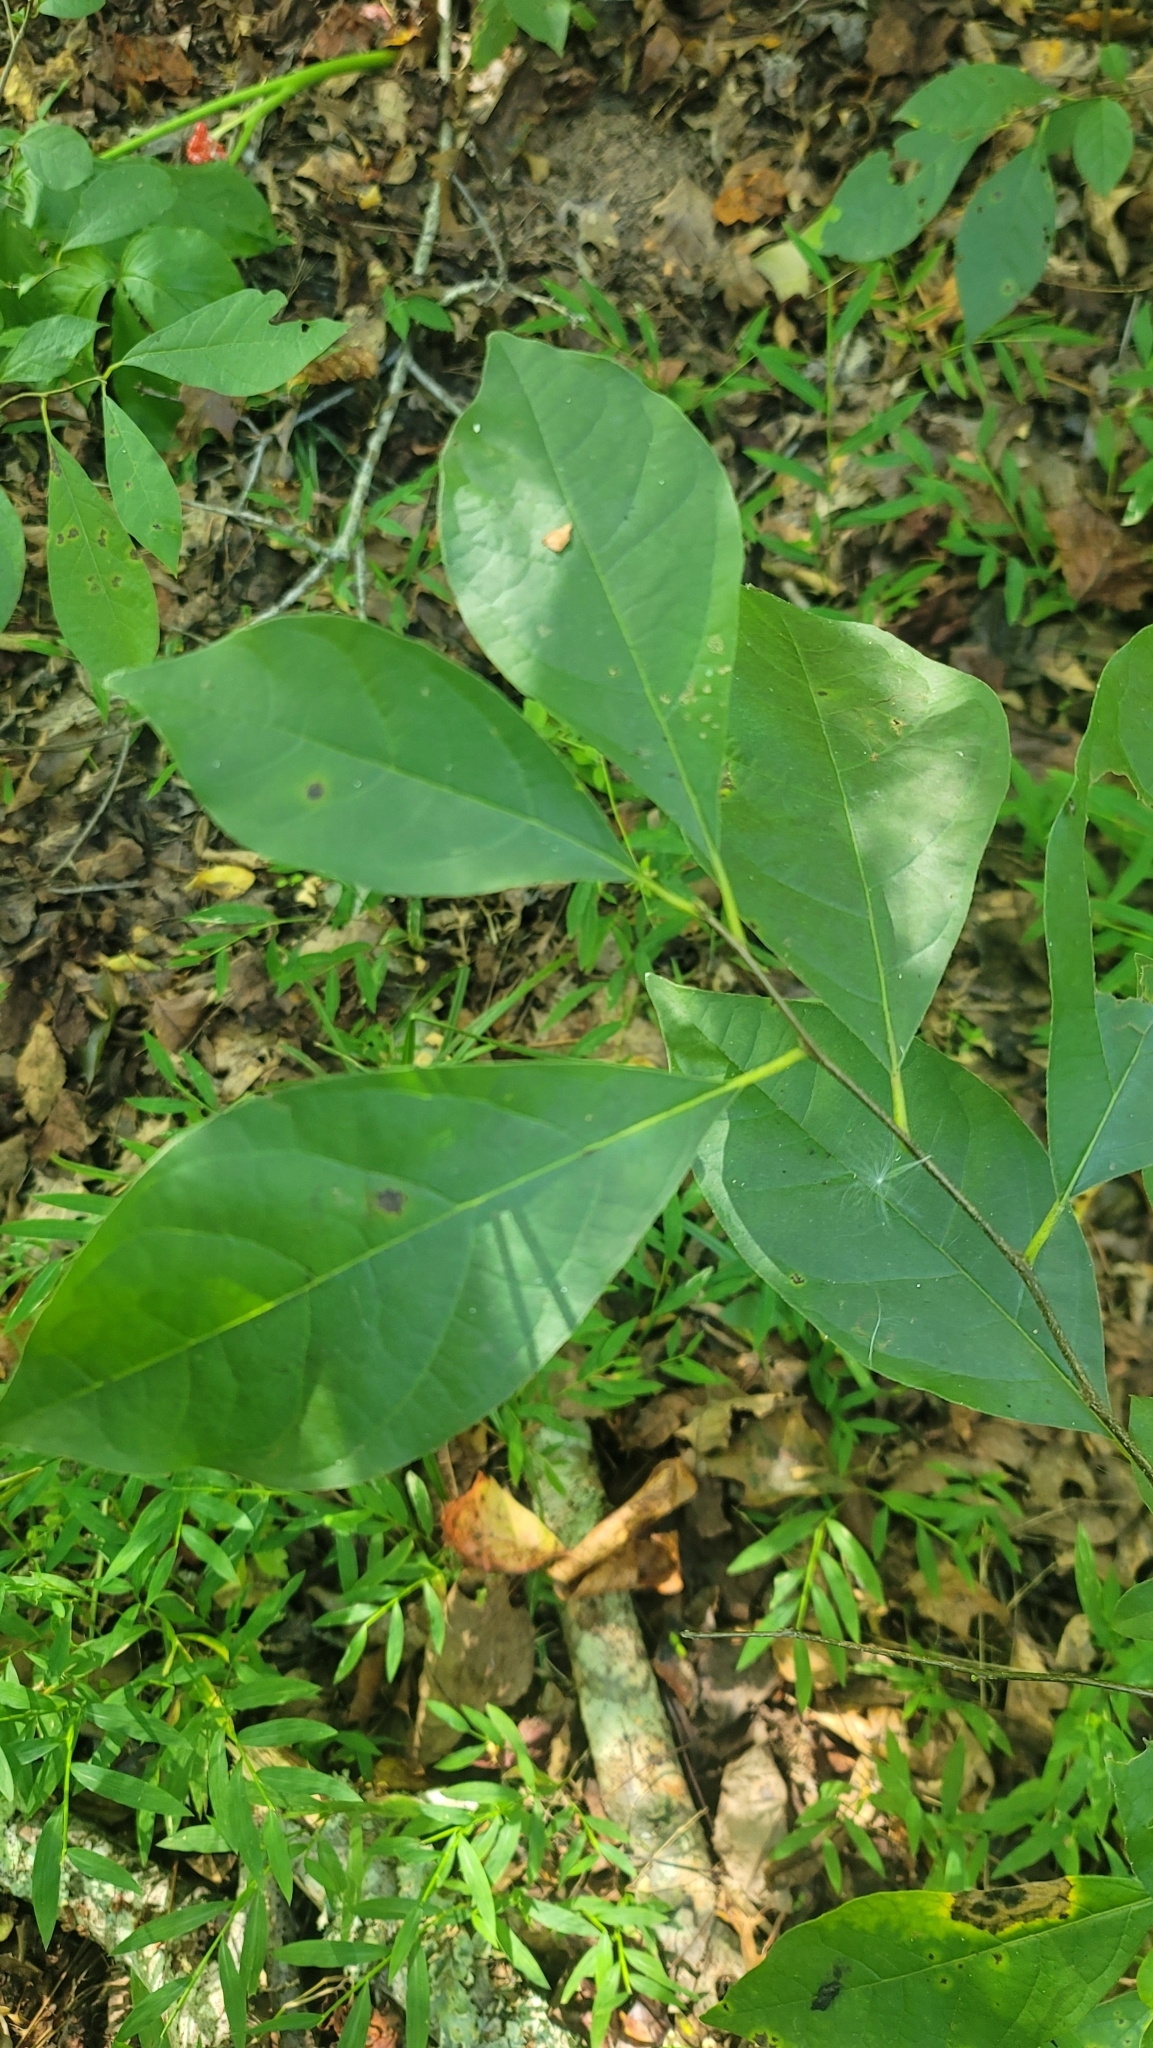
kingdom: Plantae
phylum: Tracheophyta
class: Magnoliopsida
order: Laurales
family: Lauraceae
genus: Lindera
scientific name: Lindera benzoin
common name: Spicebush
